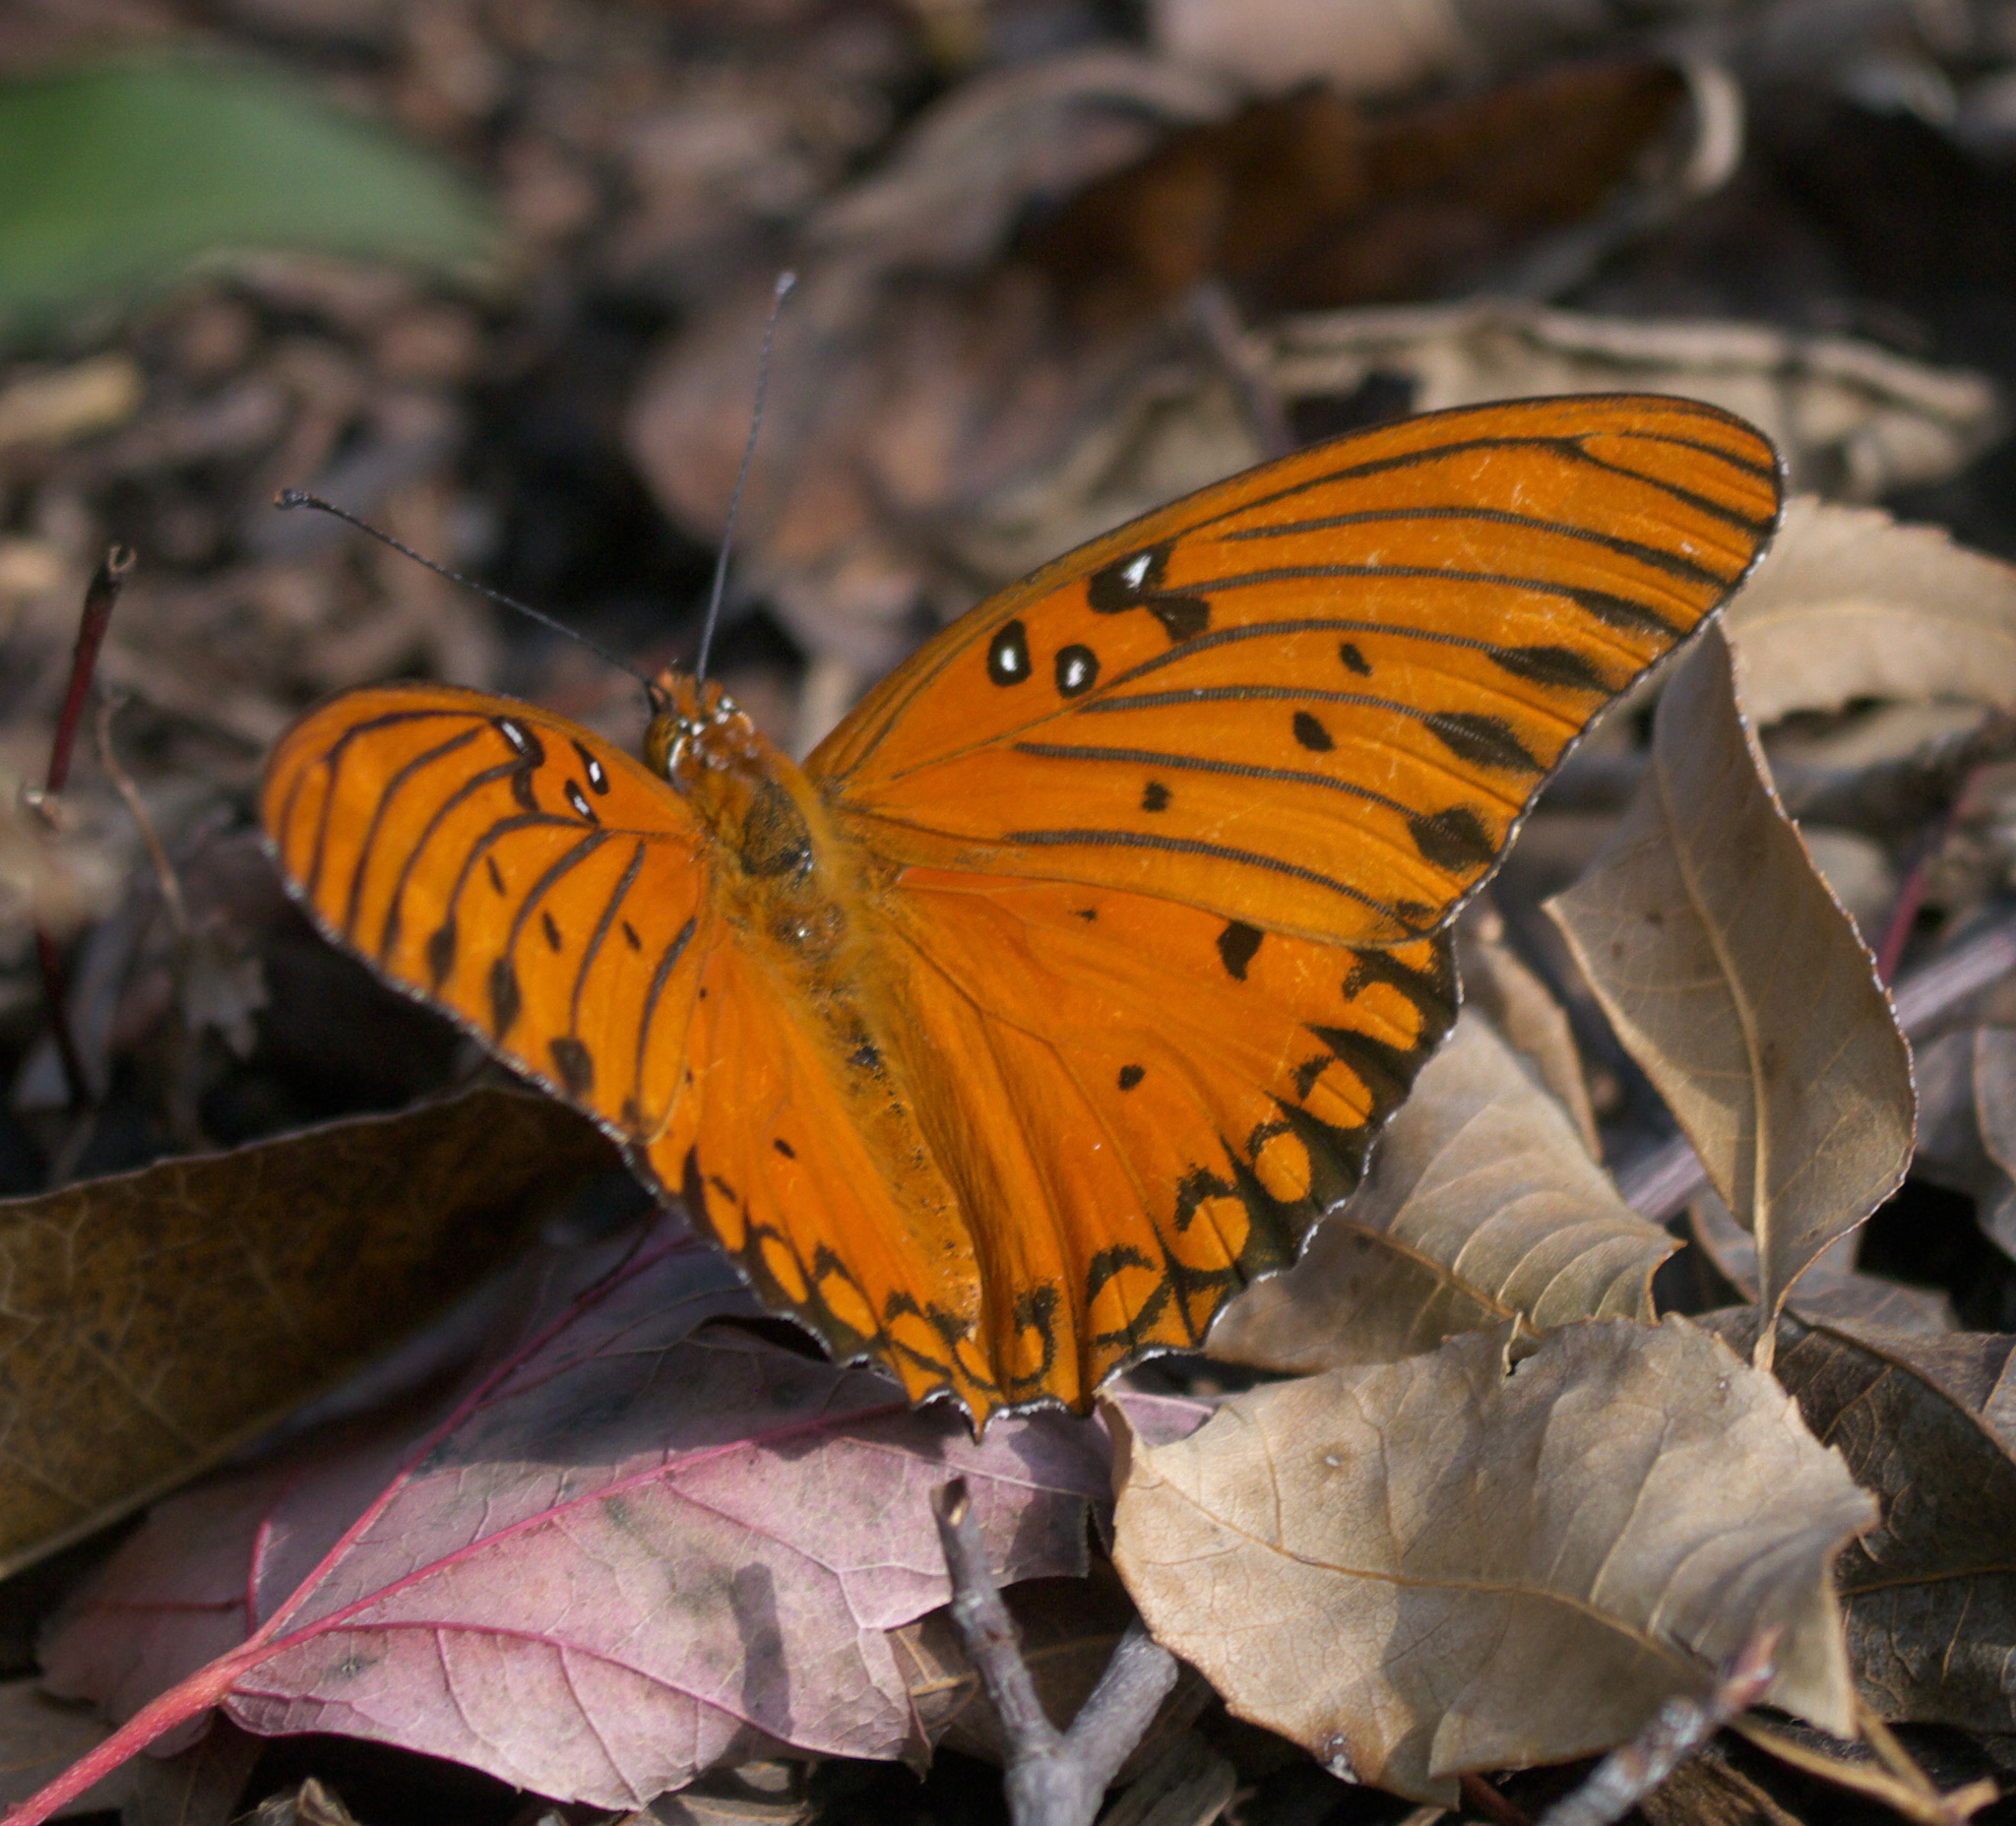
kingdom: Animalia
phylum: Arthropoda
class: Insecta
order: Lepidoptera
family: Nymphalidae
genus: Dione
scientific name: Dione vanillae
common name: Gulf fritillary
